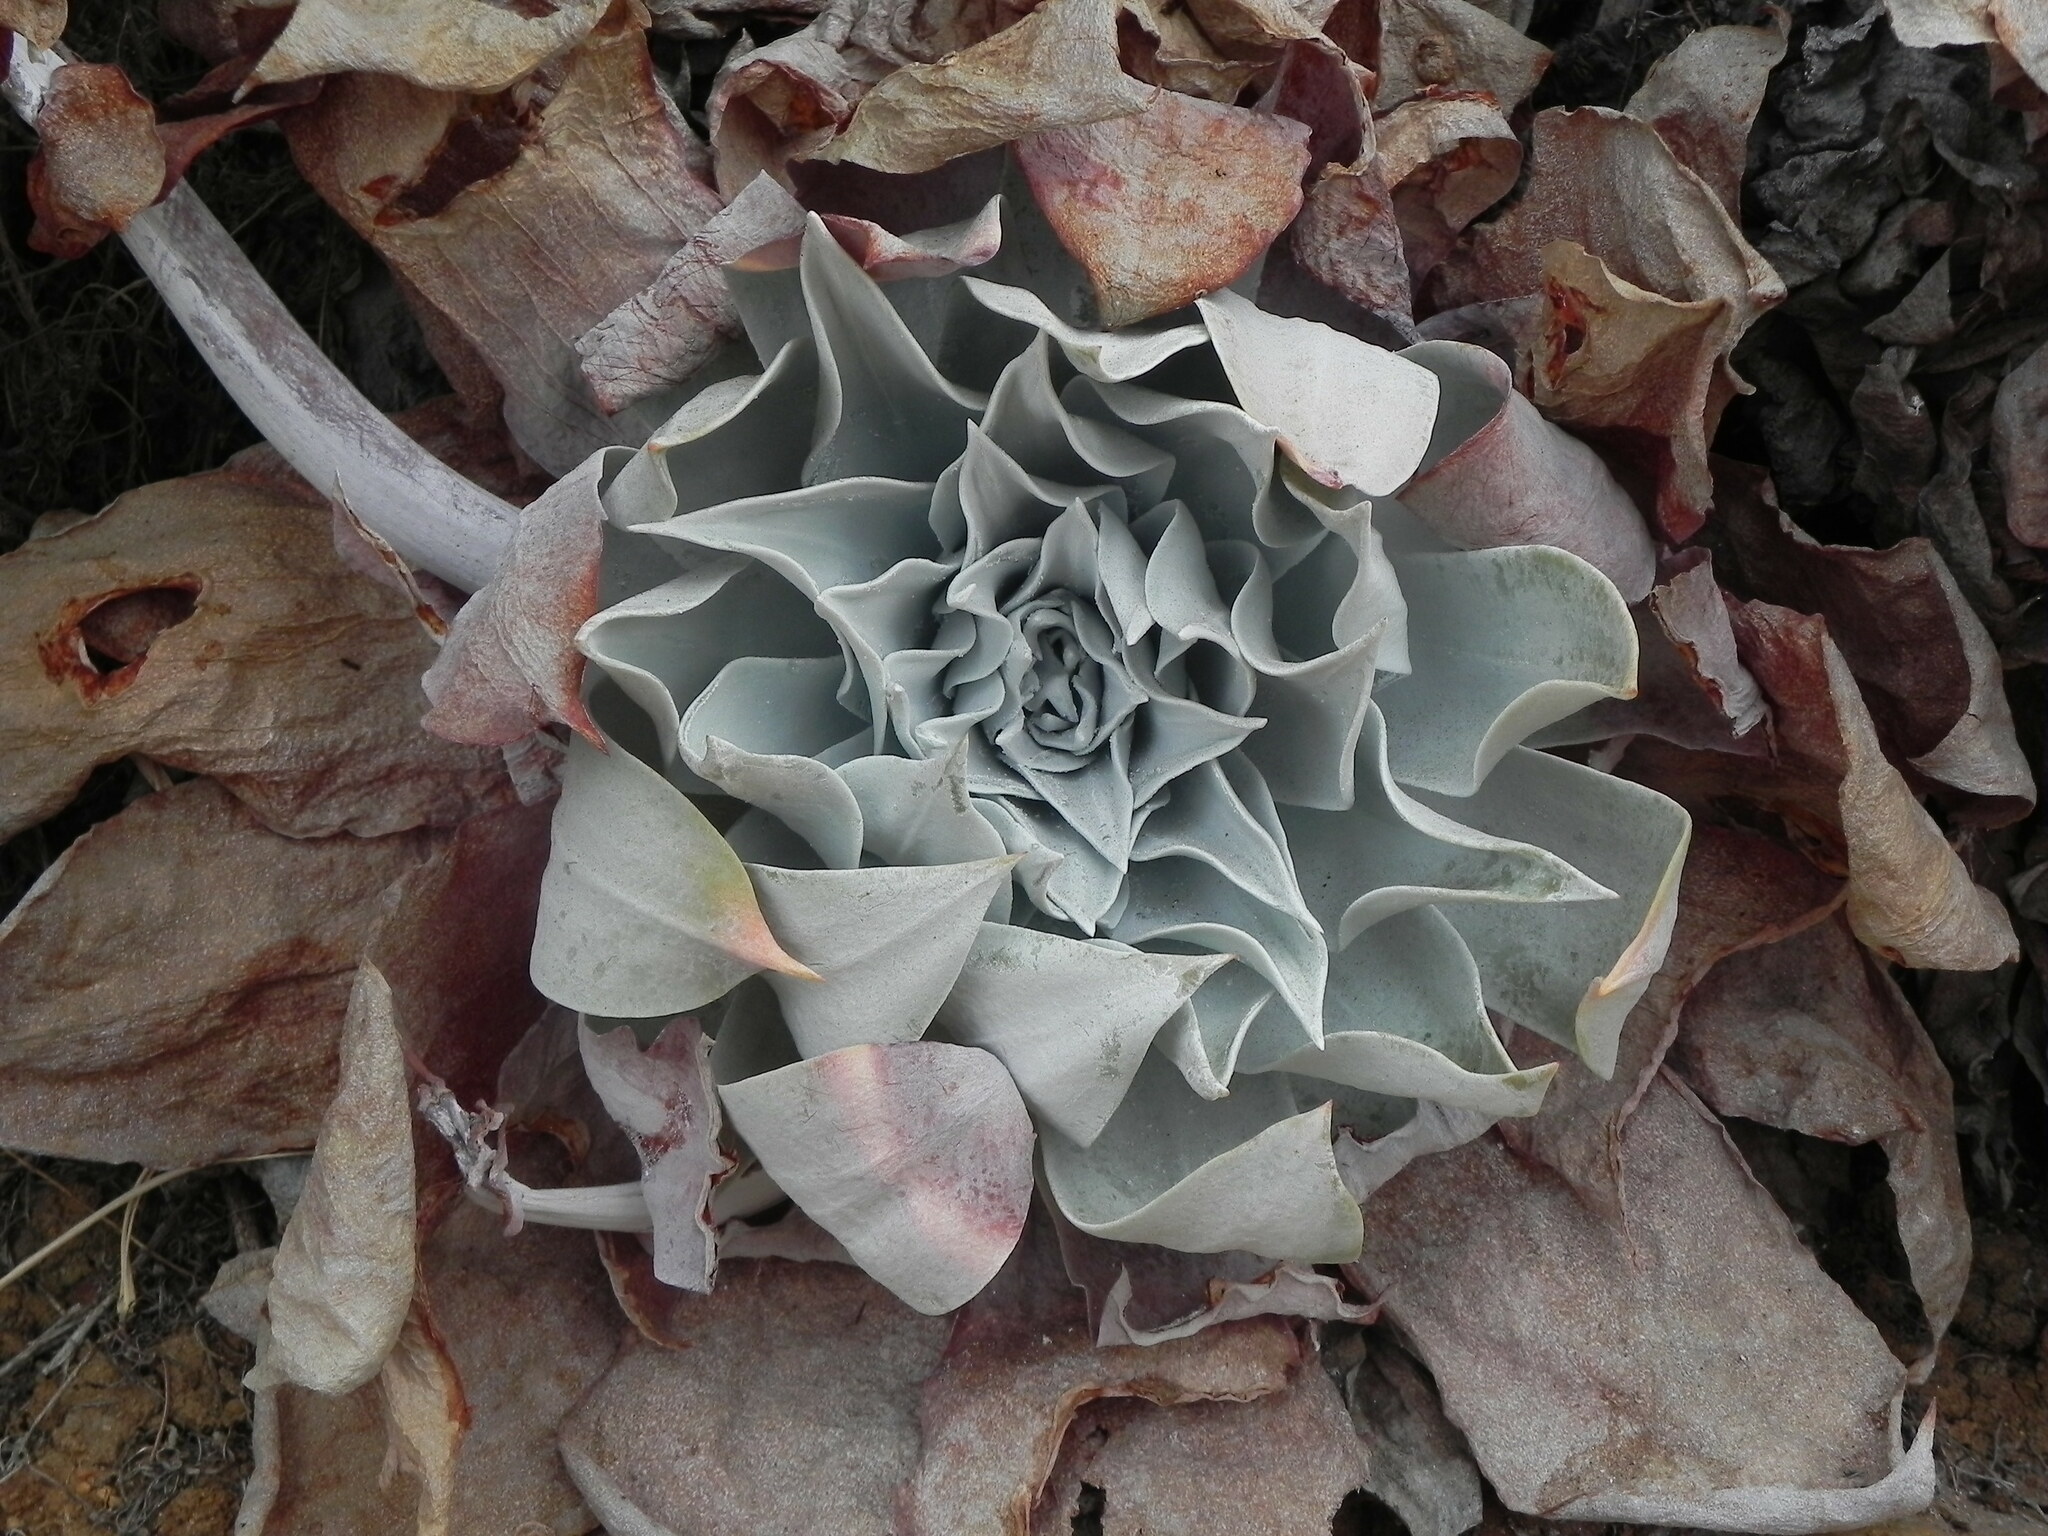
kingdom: Plantae
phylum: Tracheophyta
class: Magnoliopsida
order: Saxifragales
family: Crassulaceae
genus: Dudleya
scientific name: Dudleya pulverulenta
